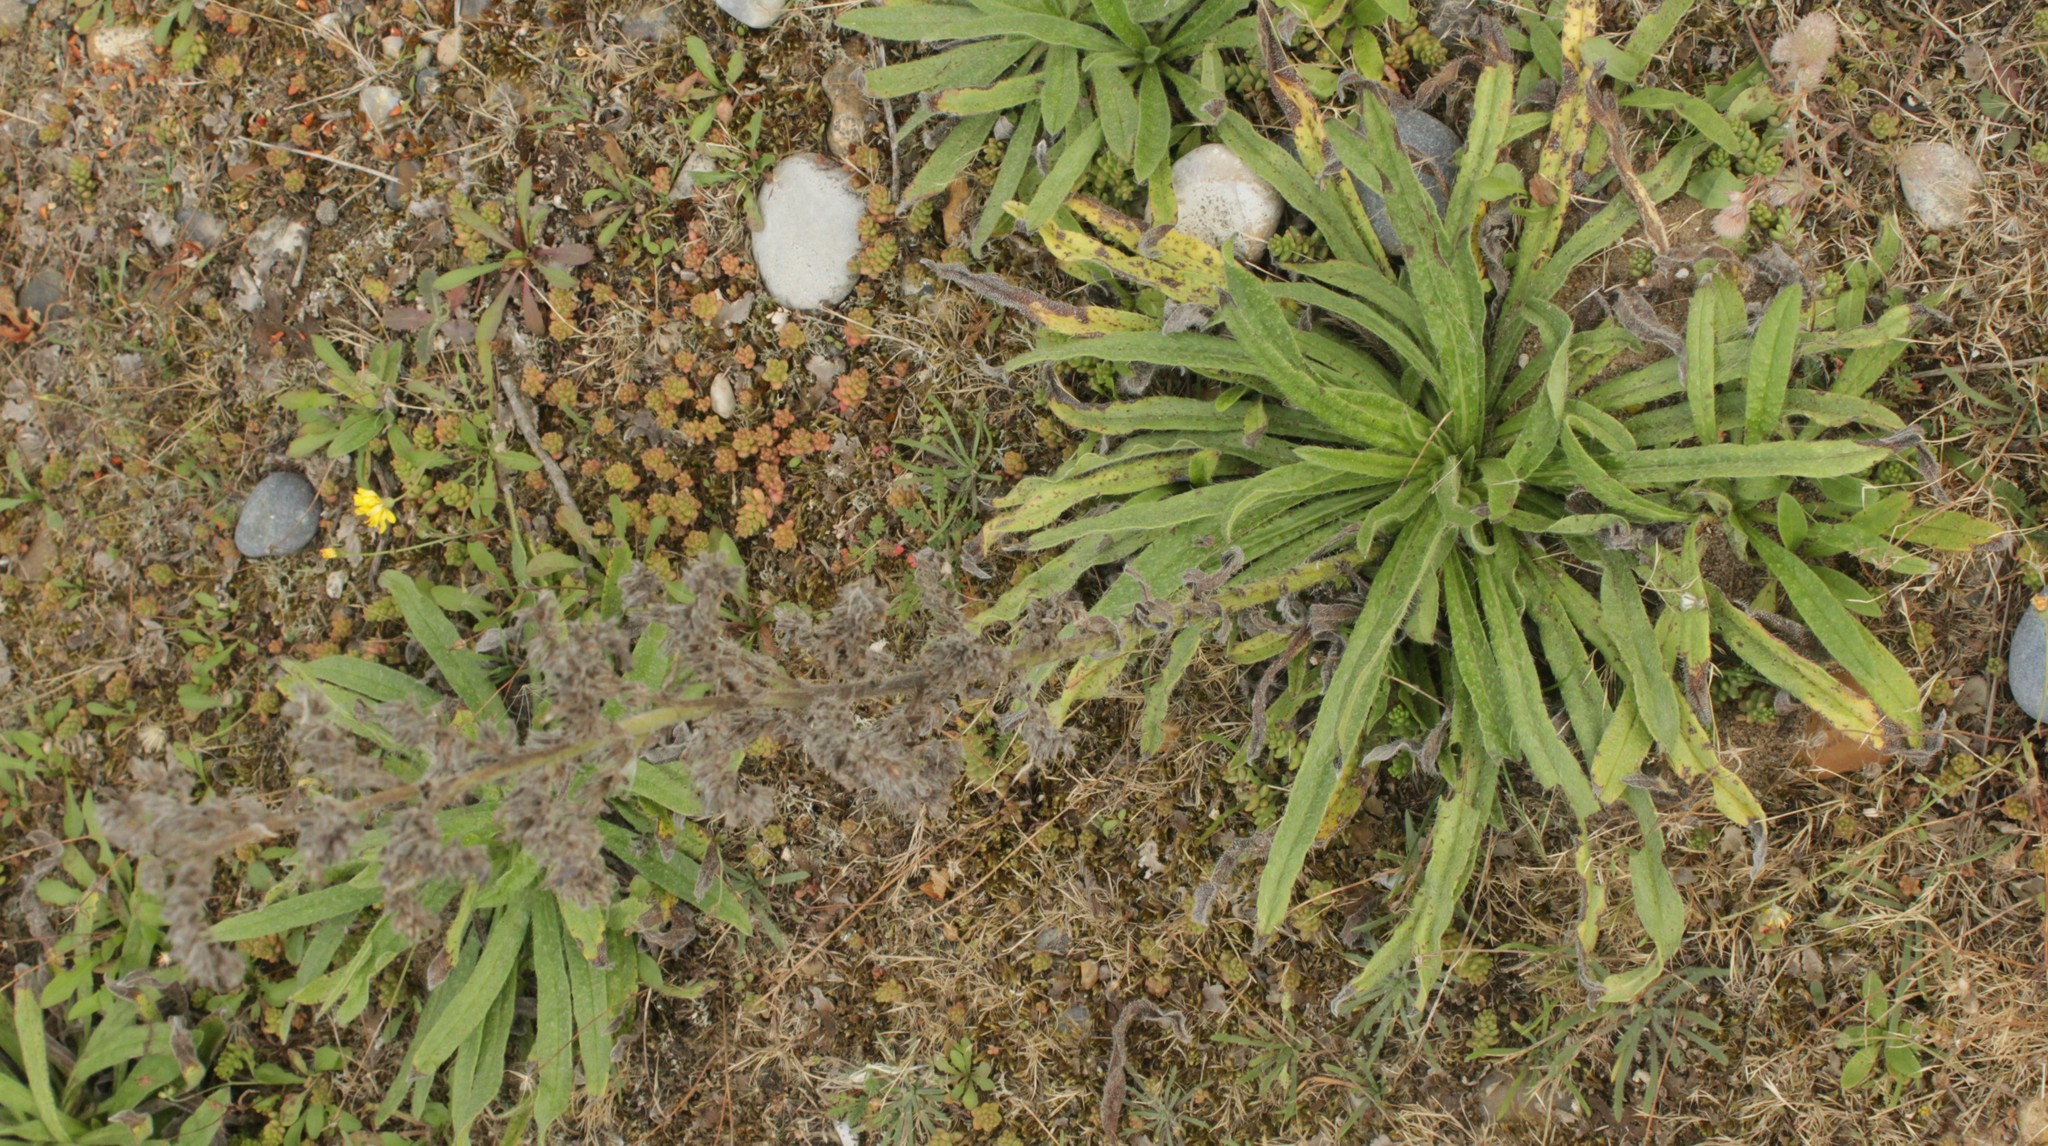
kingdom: Plantae
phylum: Tracheophyta
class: Magnoliopsida
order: Boraginales
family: Boraginaceae
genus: Echium
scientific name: Echium vulgare
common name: Common viper's bugloss
